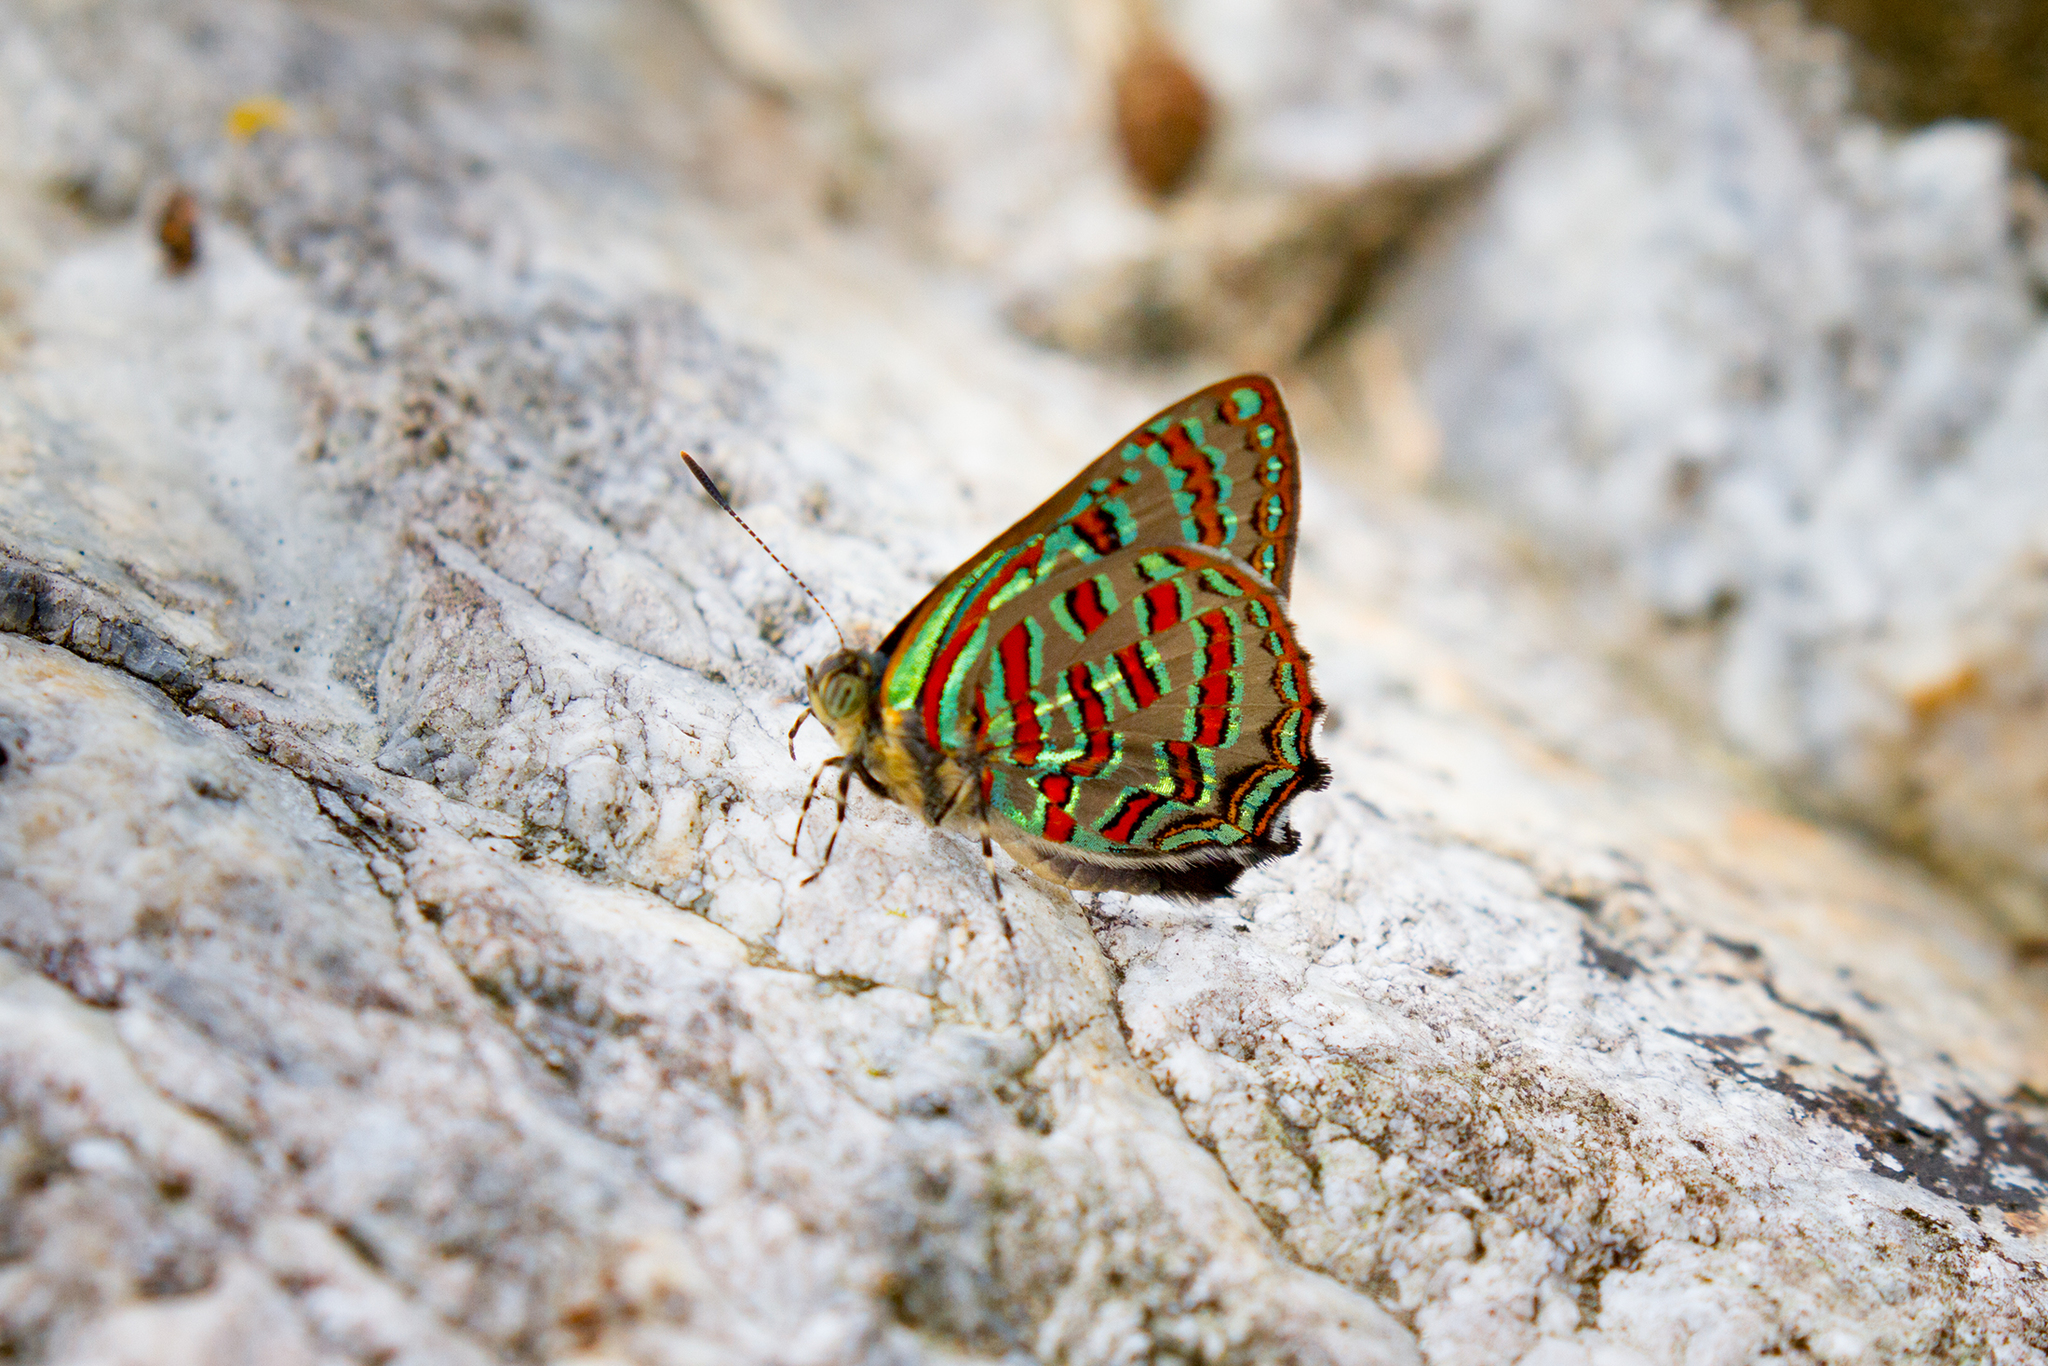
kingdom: Animalia
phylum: Arthropoda
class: Insecta
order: Lepidoptera
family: Lycaenidae
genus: Hypochrysops
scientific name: Hypochrysops pythias
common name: Peacock jewel
